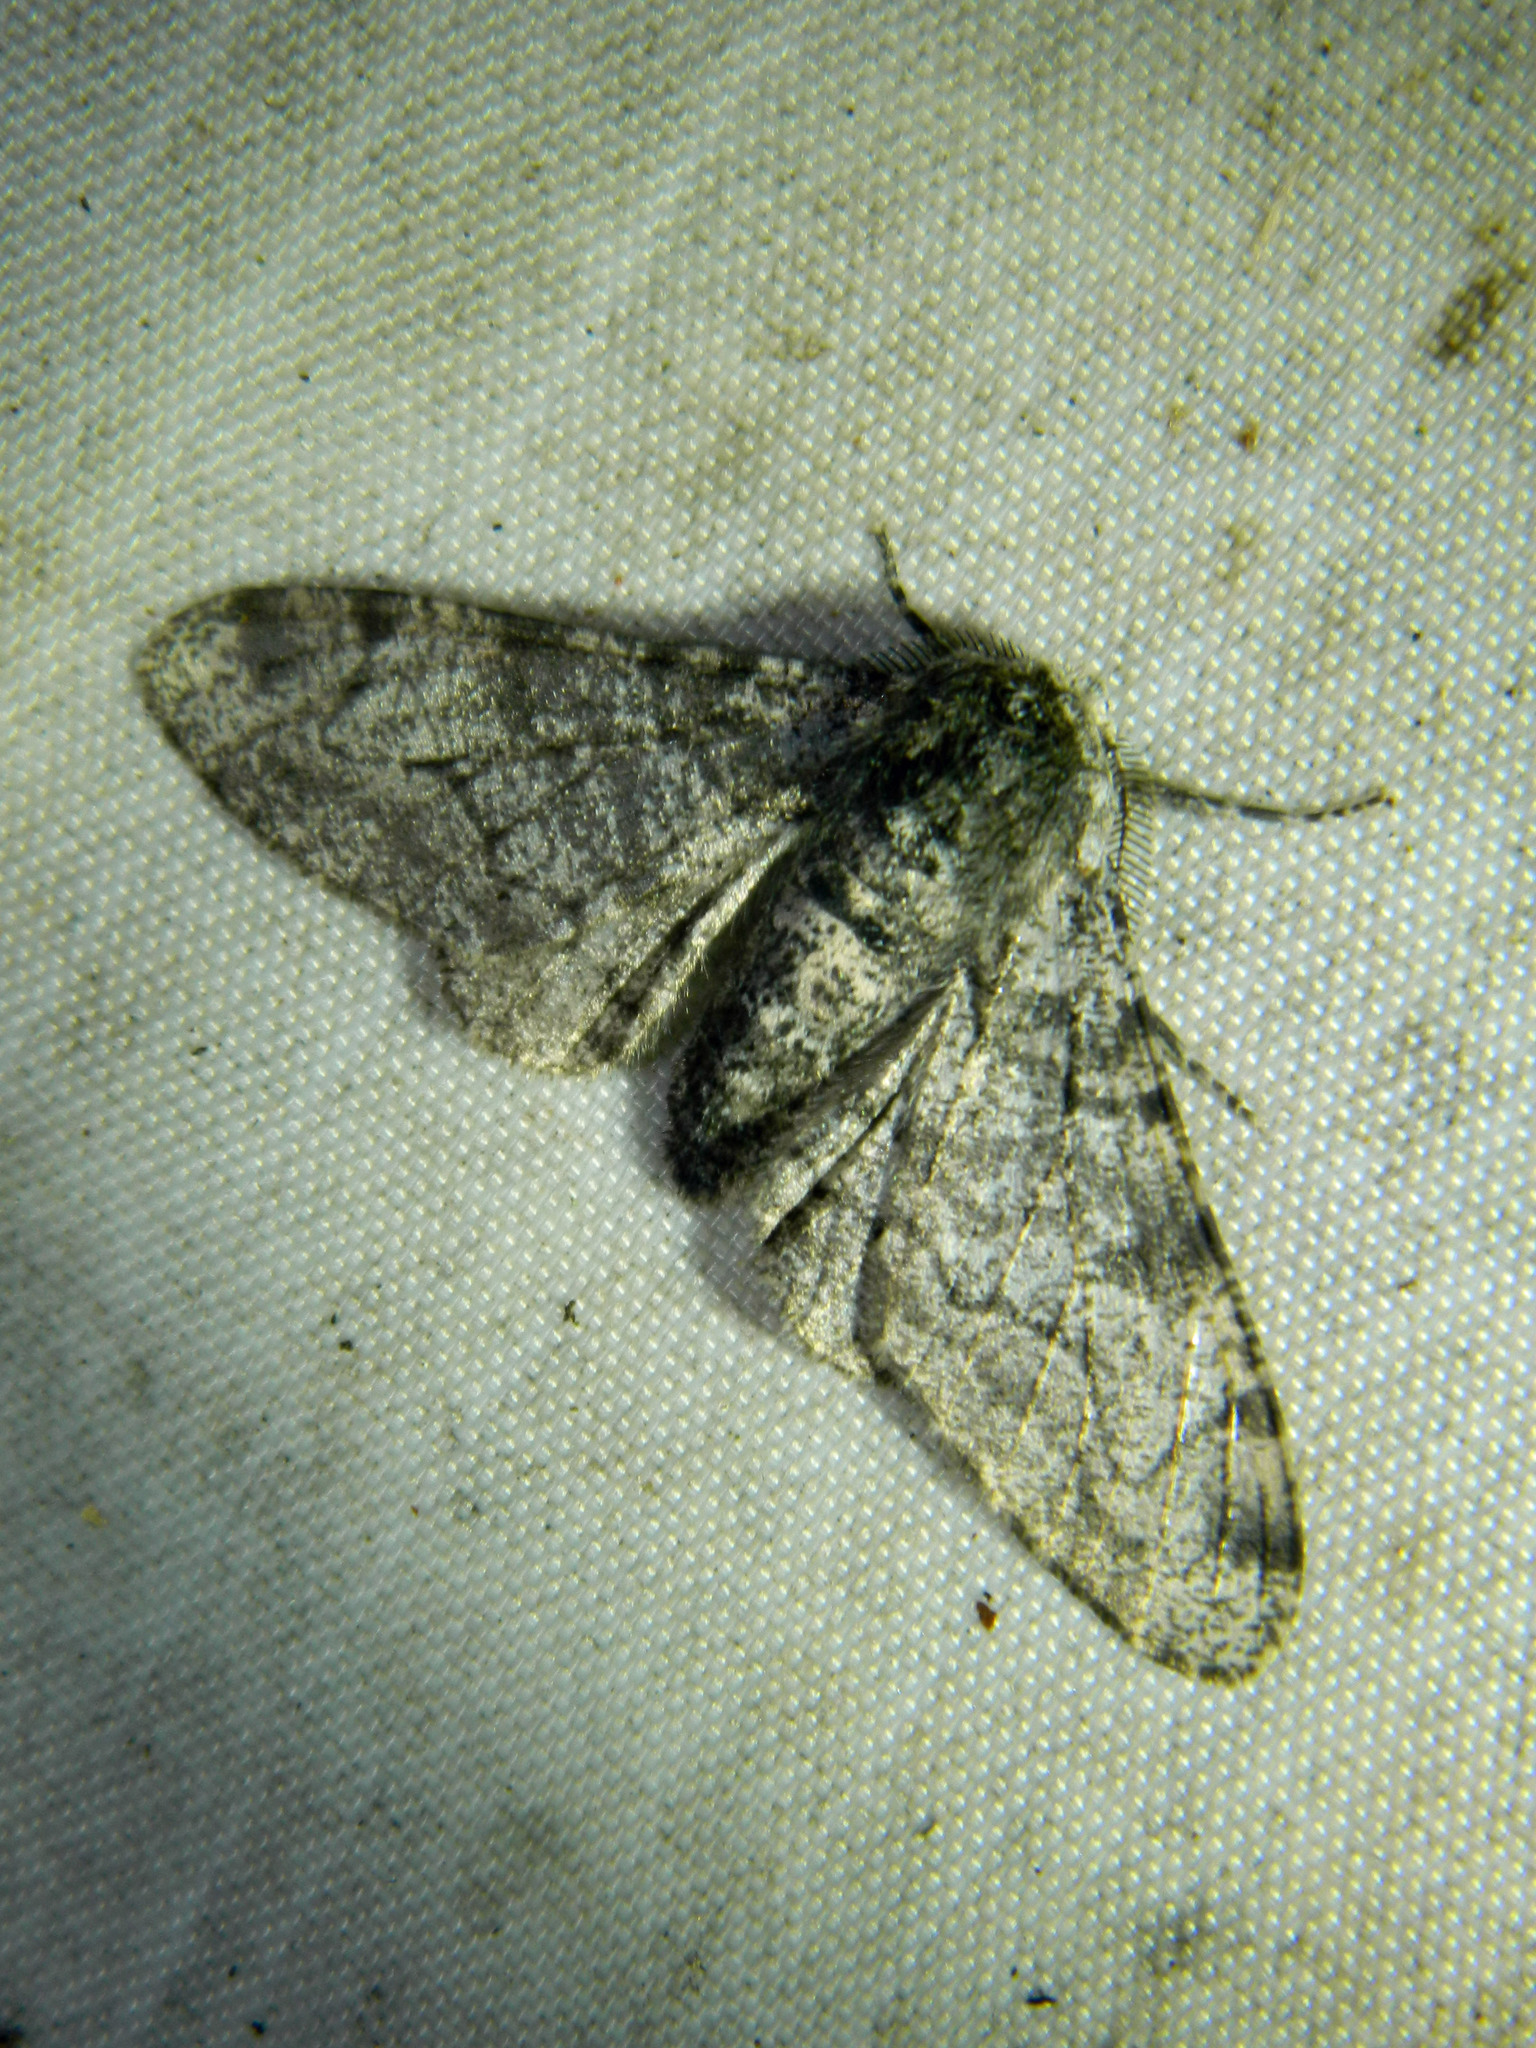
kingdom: Animalia
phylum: Arthropoda
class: Insecta
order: Lepidoptera
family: Geometridae
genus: Biston
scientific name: Biston betularia
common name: Peppered moth
